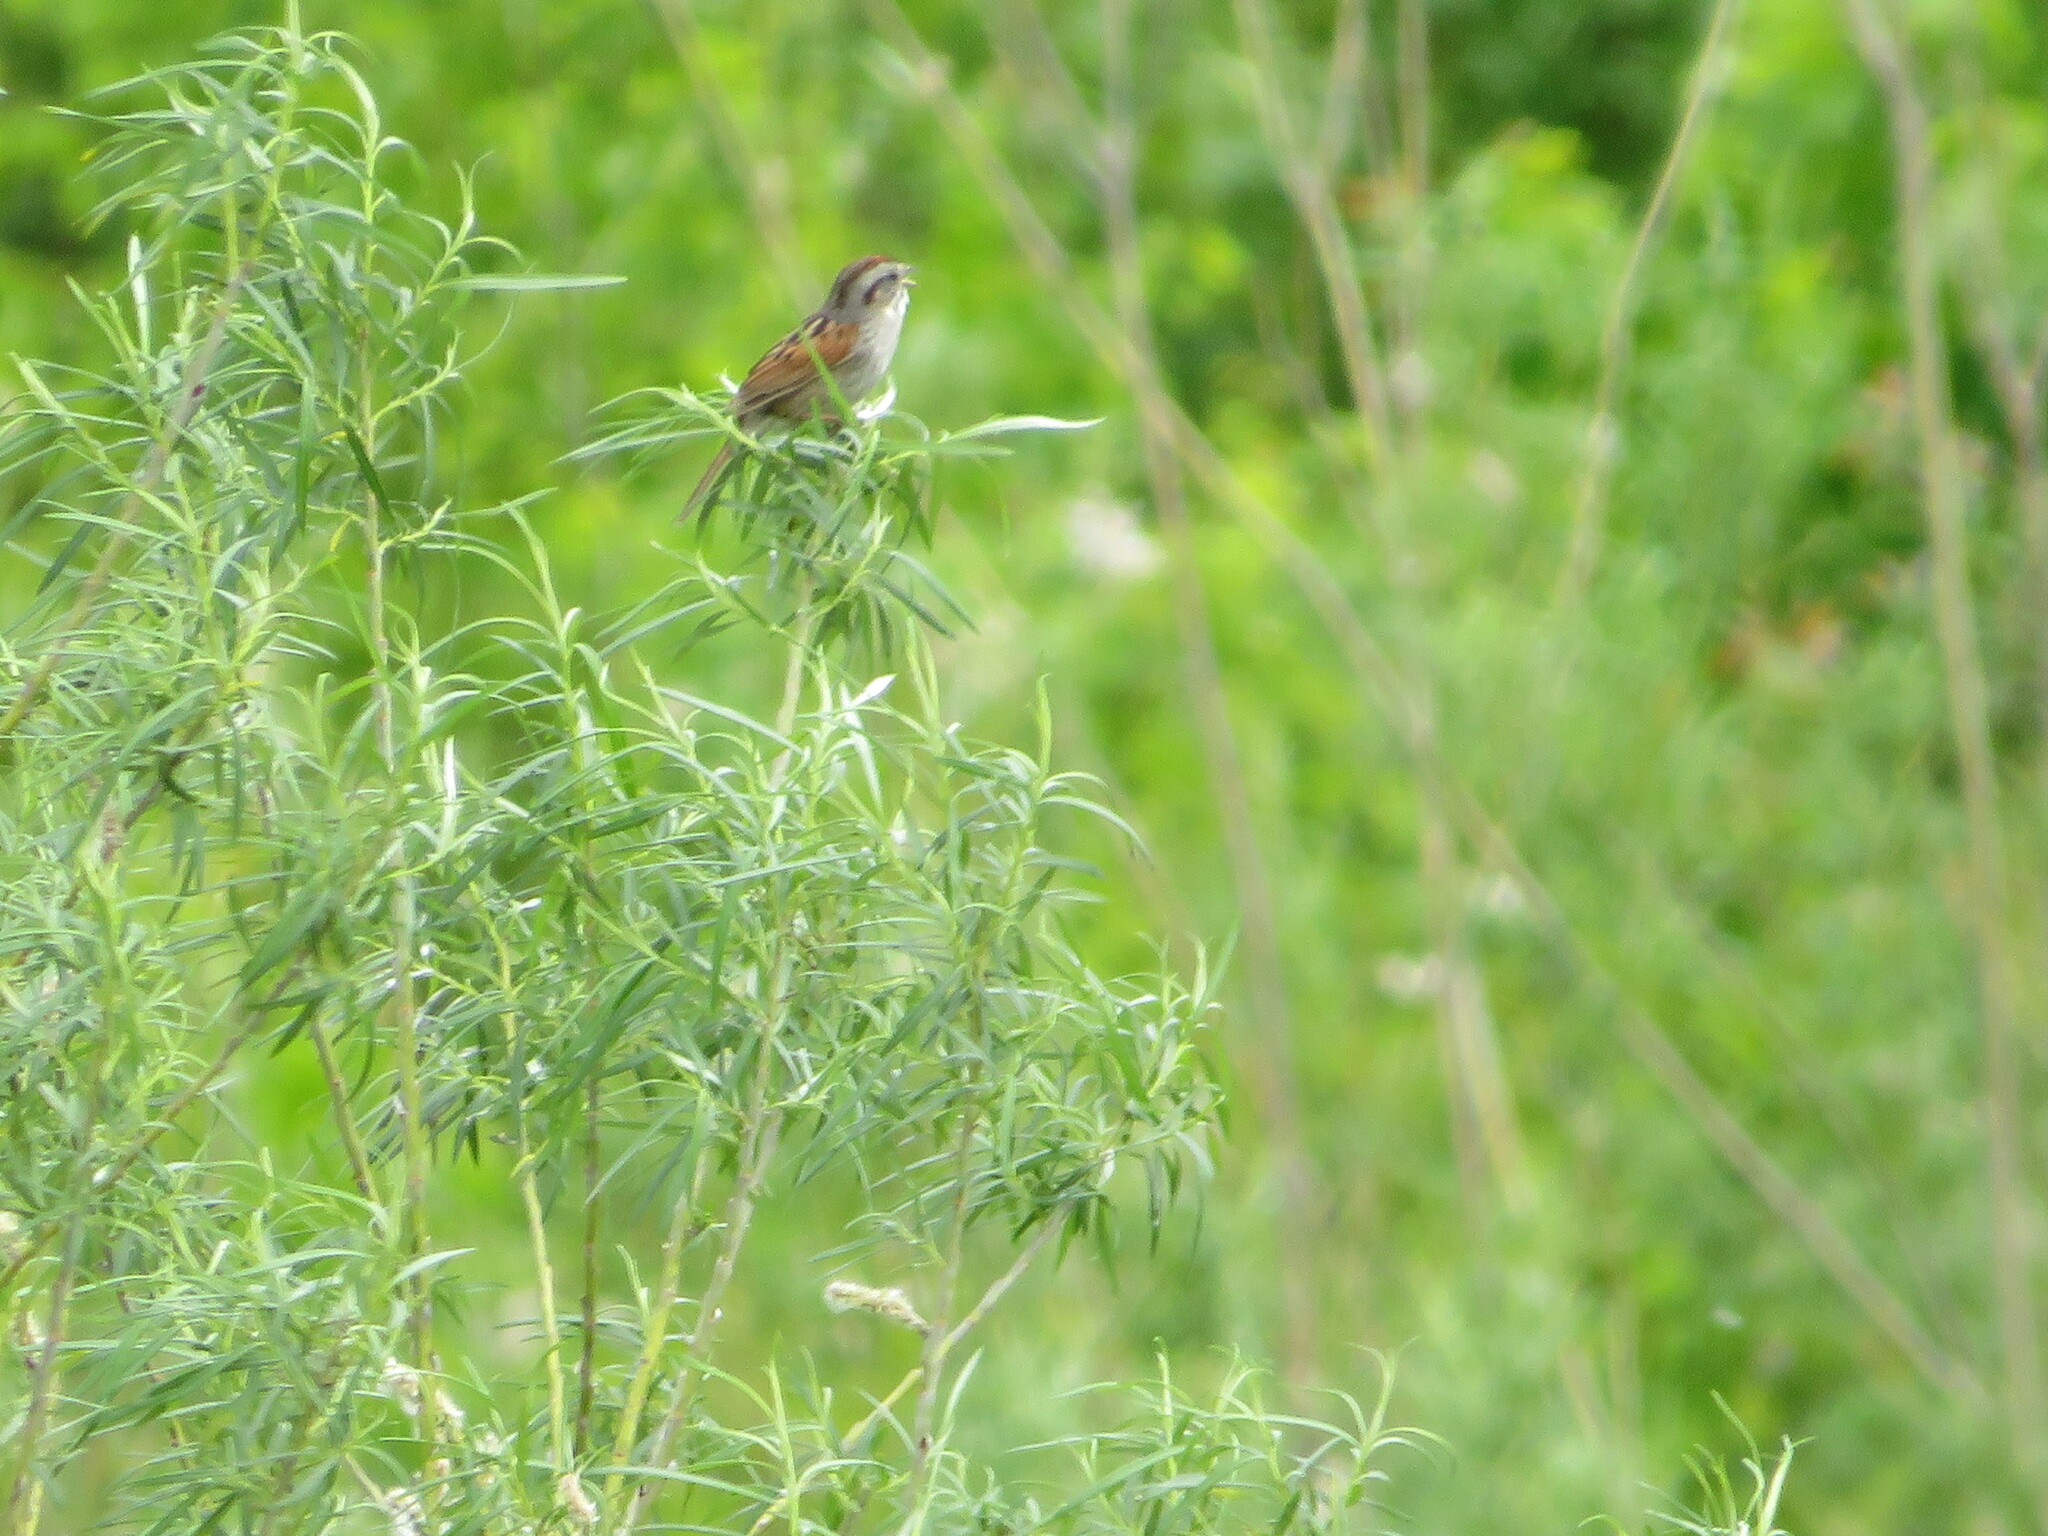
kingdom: Animalia
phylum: Chordata
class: Aves
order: Passeriformes
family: Passerellidae
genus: Melospiza
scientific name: Melospiza georgiana
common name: Swamp sparrow
